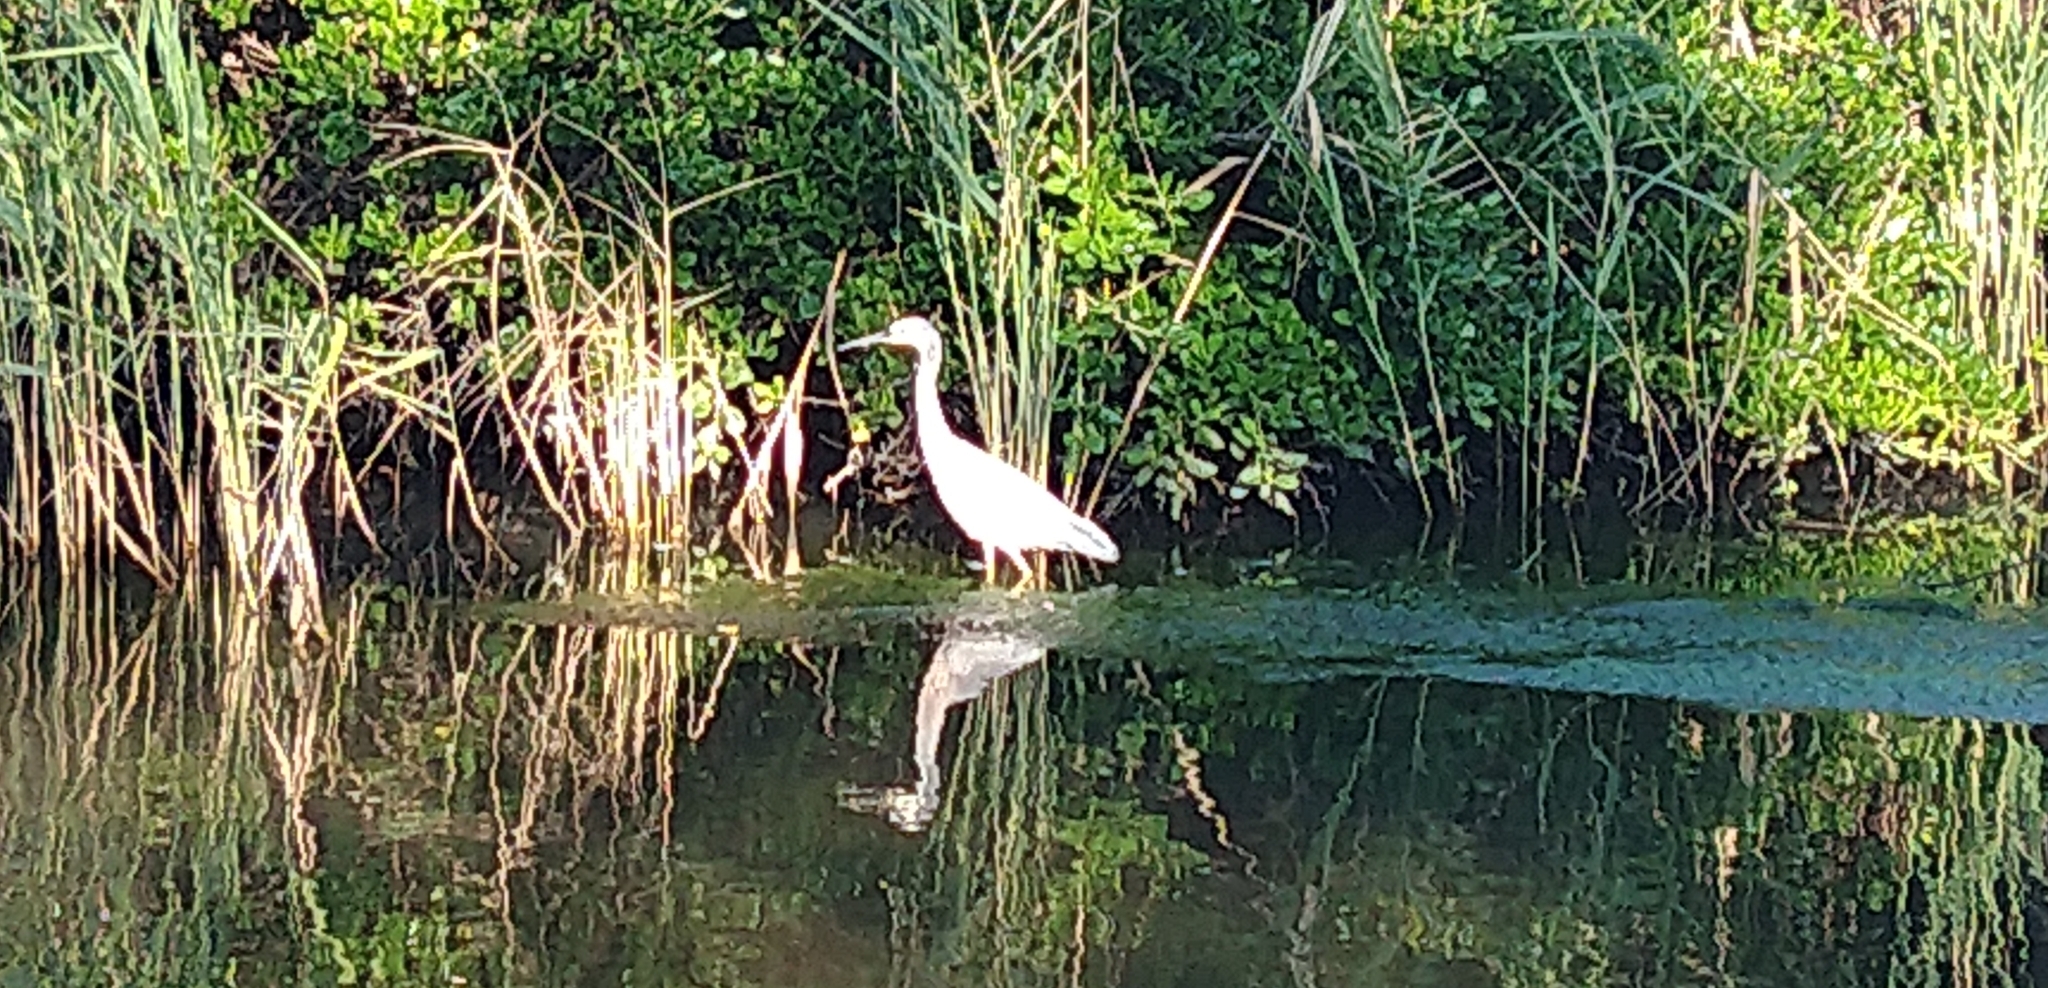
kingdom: Animalia
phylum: Chordata
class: Aves
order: Pelecaniformes
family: Ardeidae
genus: Egretta
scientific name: Egretta novaehollandiae
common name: White-faced heron
